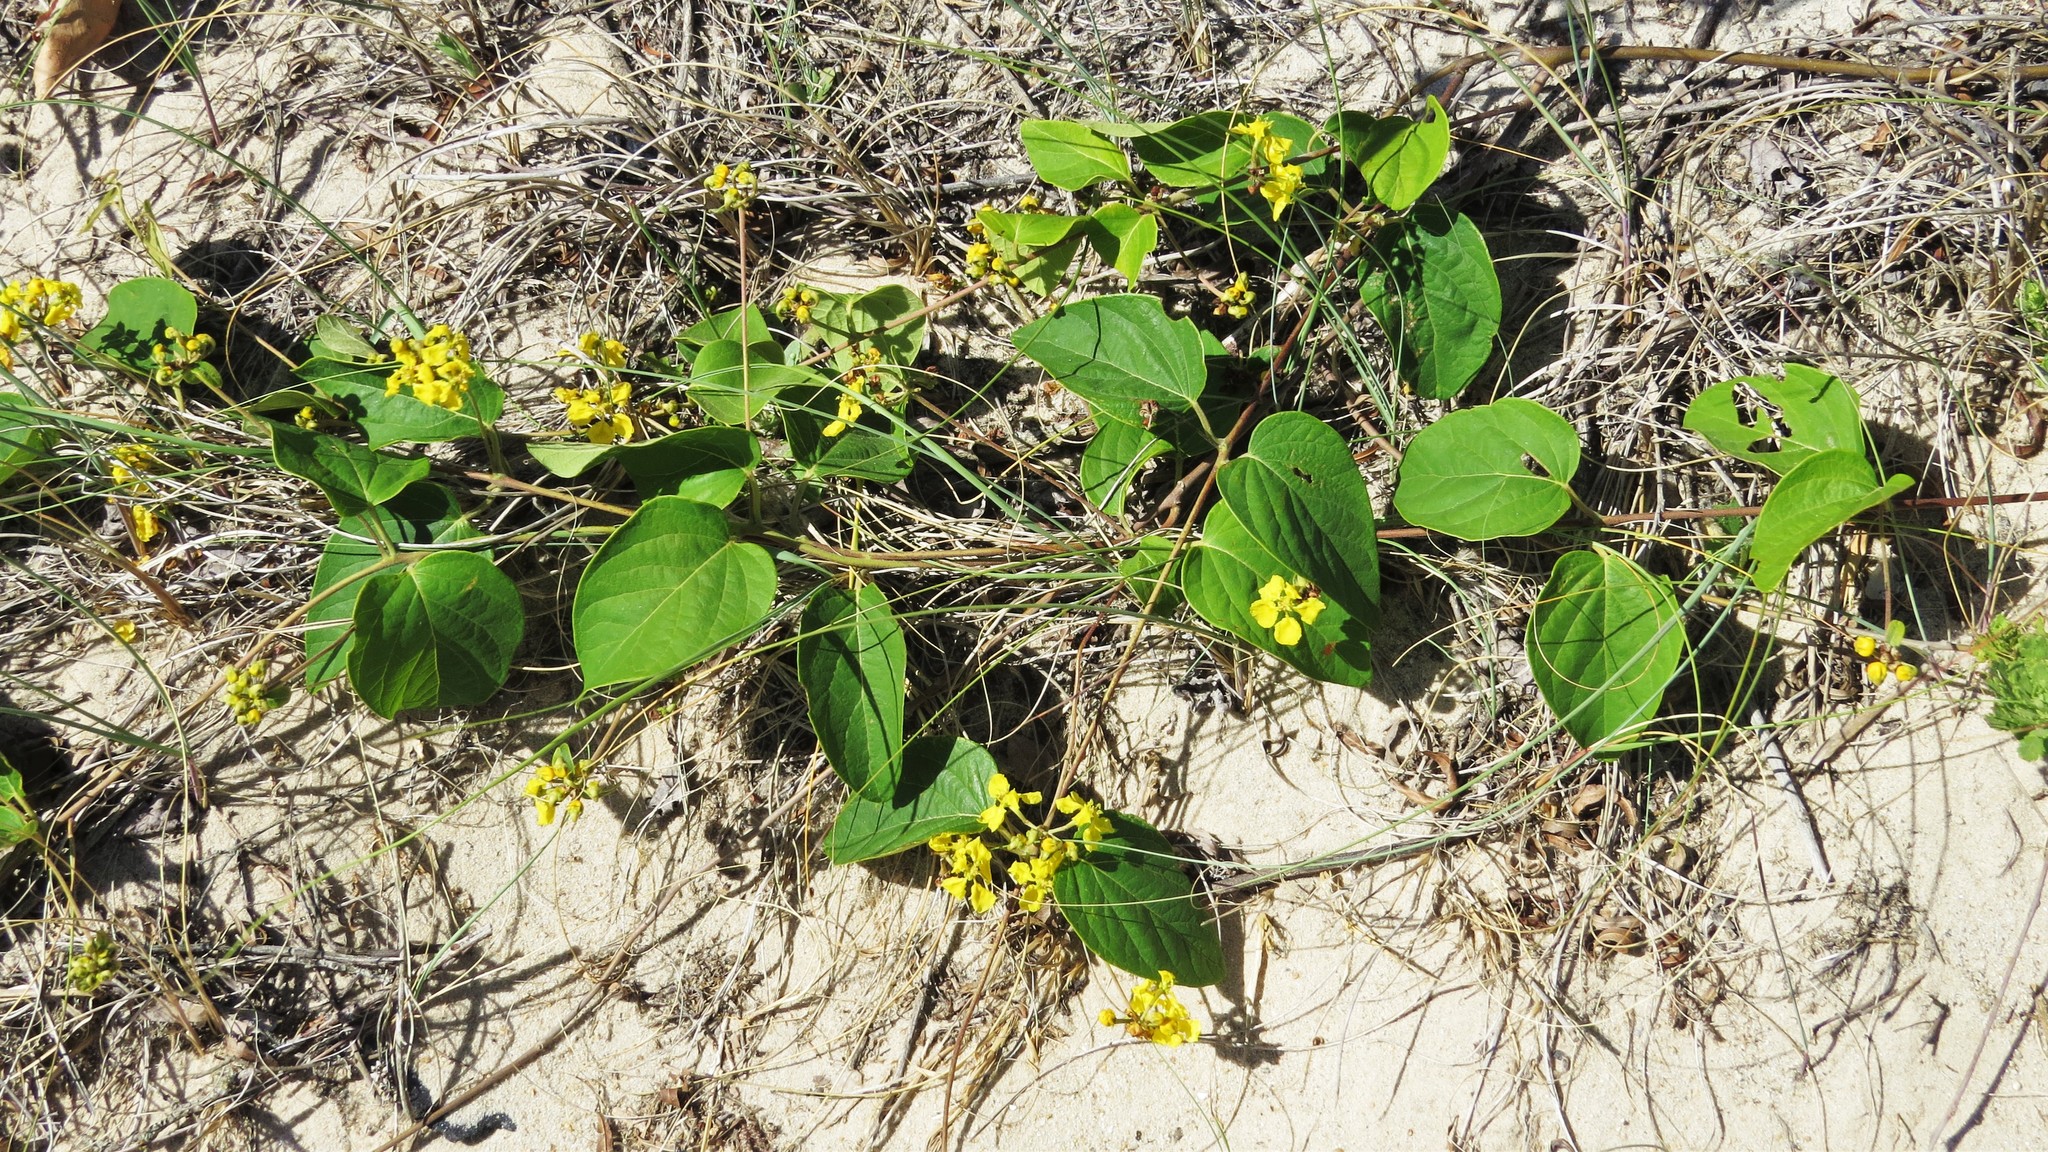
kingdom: Plantae
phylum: Tracheophyta
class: Magnoliopsida
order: Malpighiales
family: Malpighiaceae
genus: Stigmaphyllon
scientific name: Stigmaphyllon bonariense
